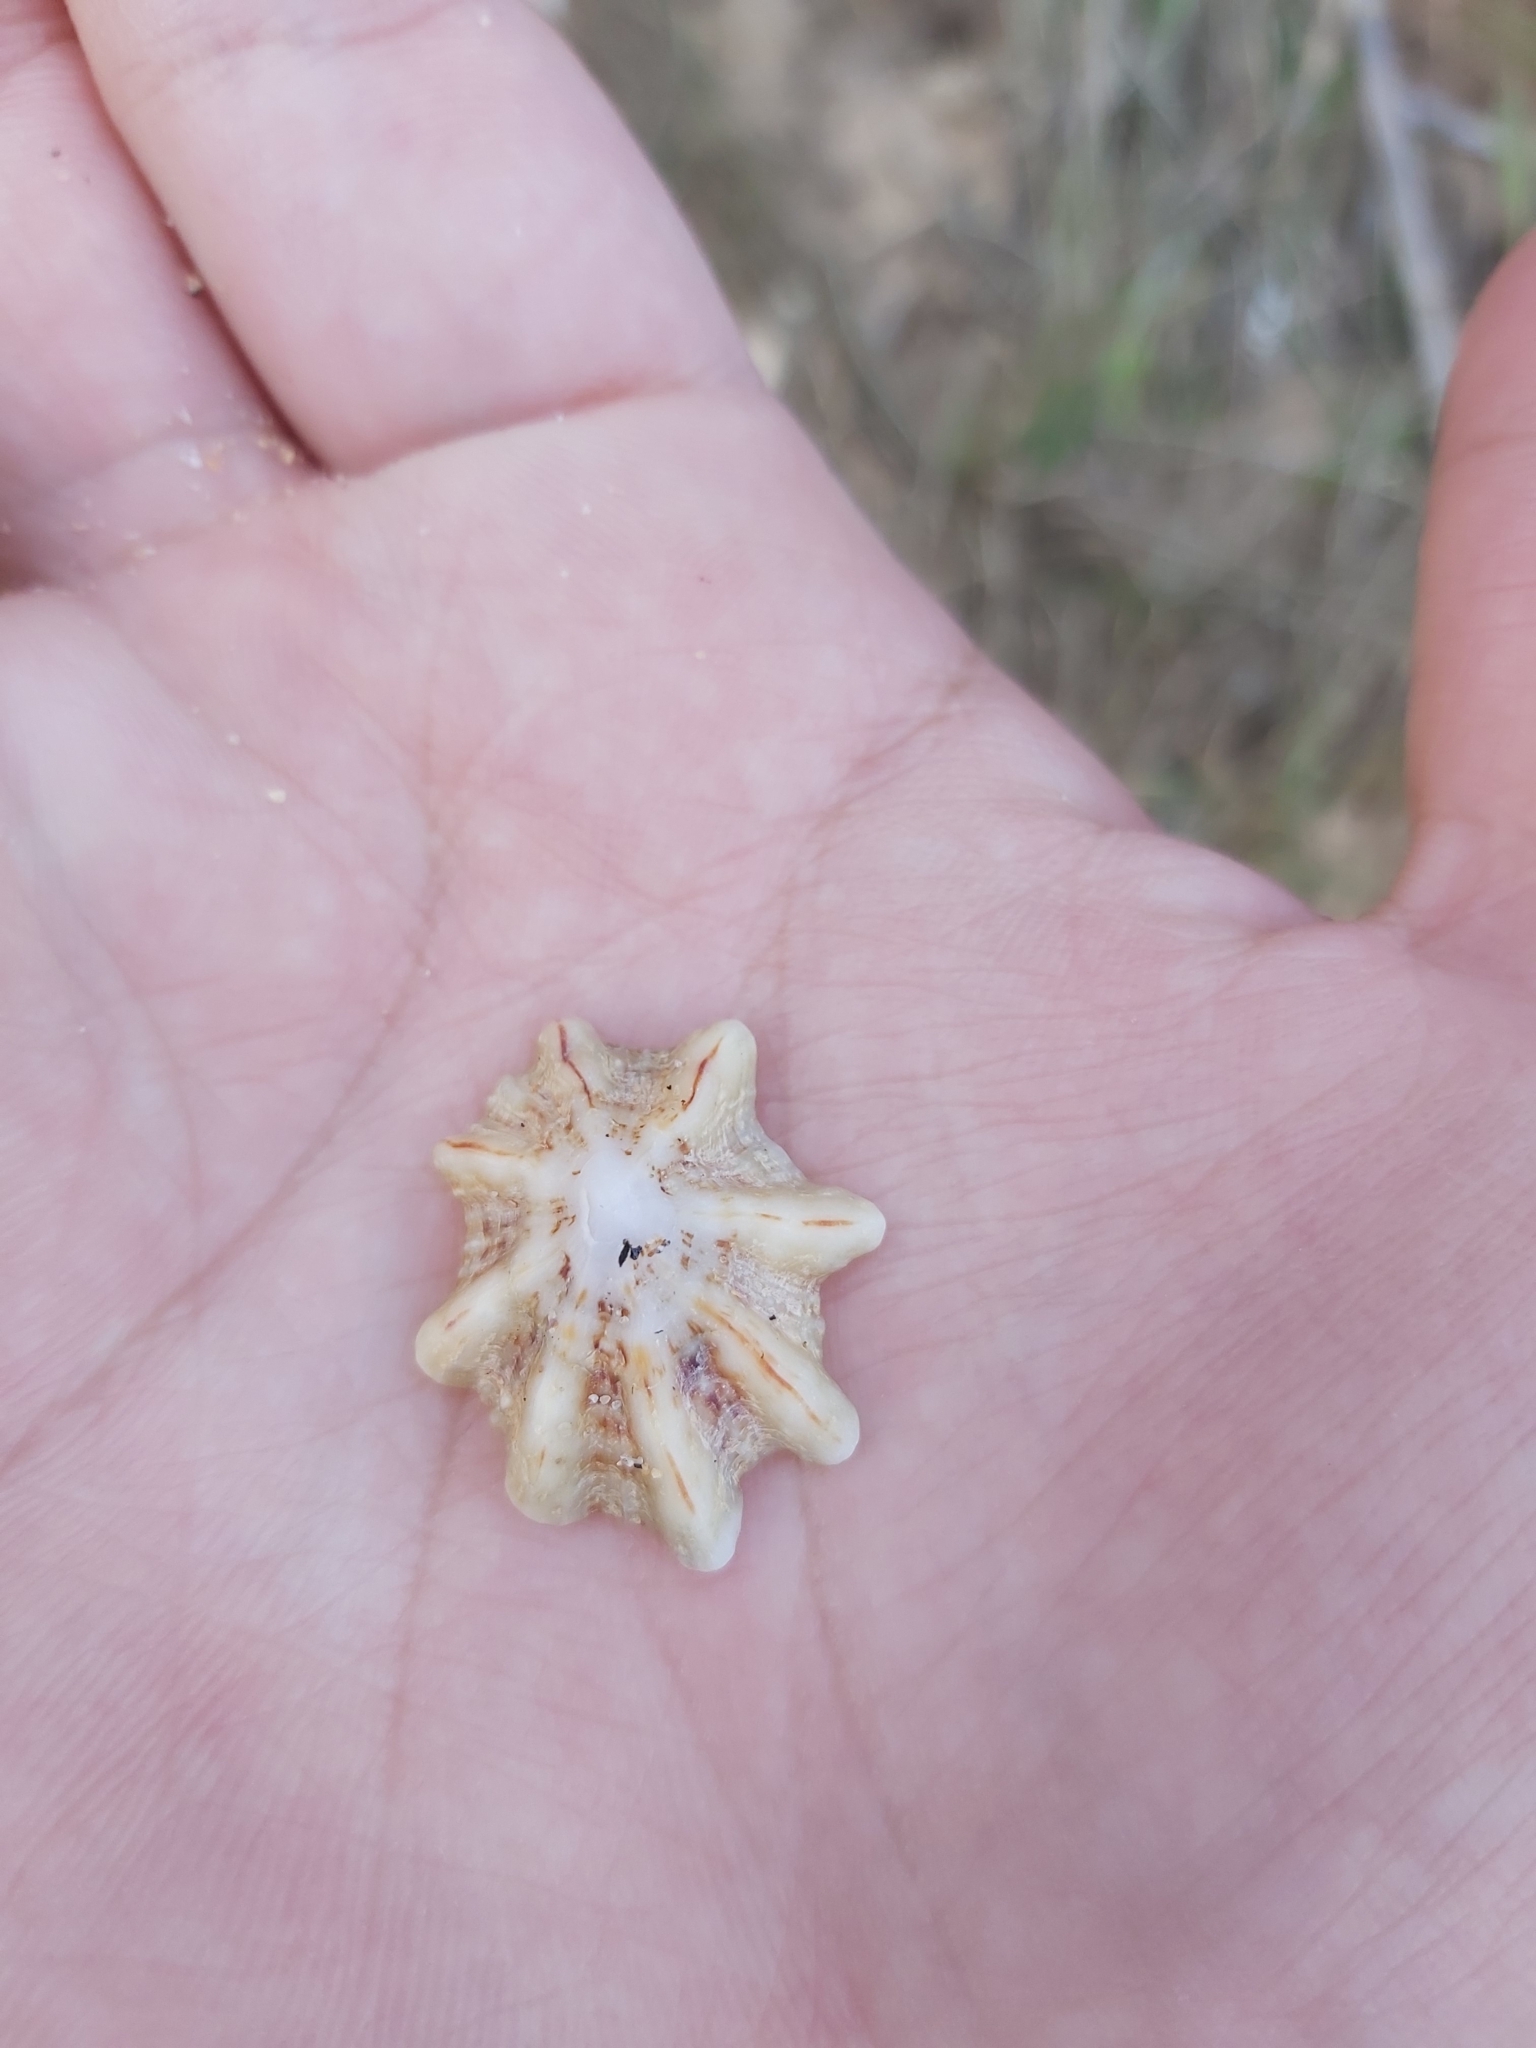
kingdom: Animalia
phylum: Mollusca
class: Gastropoda
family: Patellidae
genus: Scutellastra
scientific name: Scutellastra chapmani
